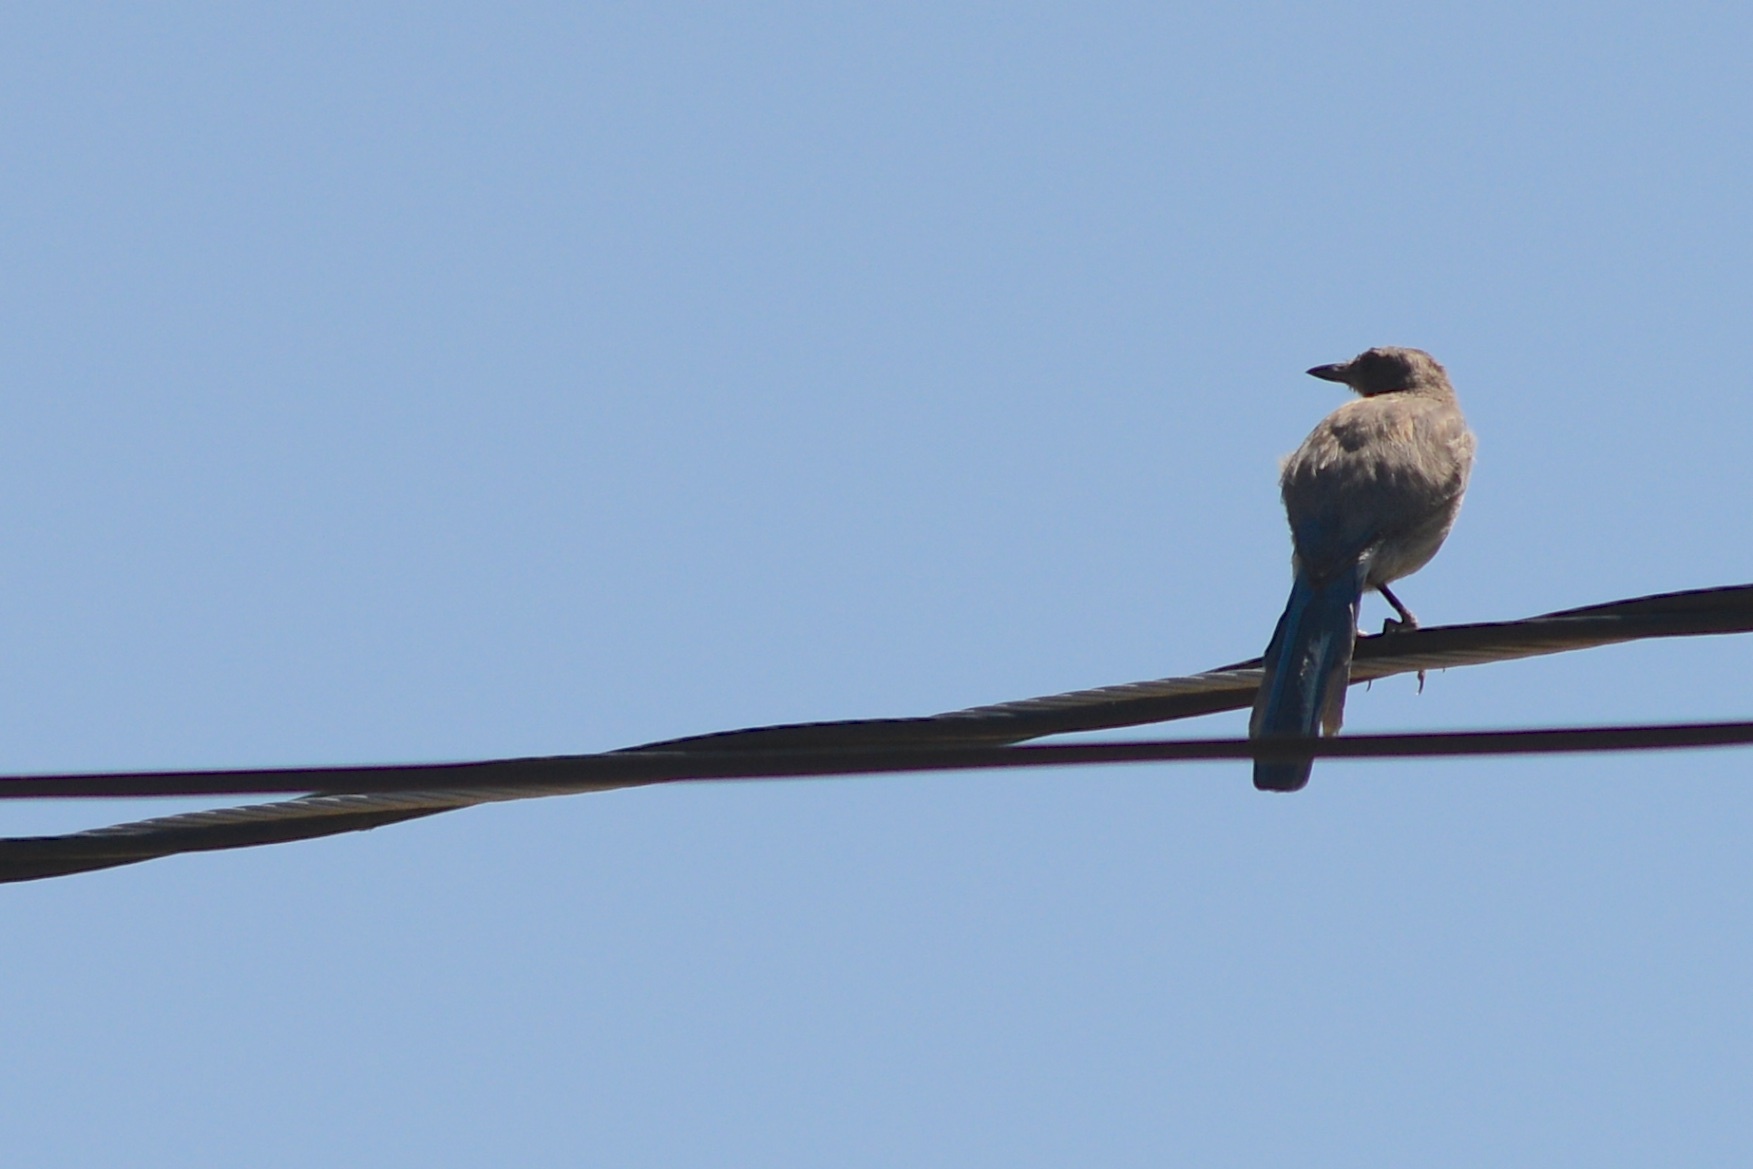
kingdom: Animalia
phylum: Chordata
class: Aves
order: Passeriformes
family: Corvidae
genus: Aphelocoma
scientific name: Aphelocoma californica
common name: California scrub-jay
